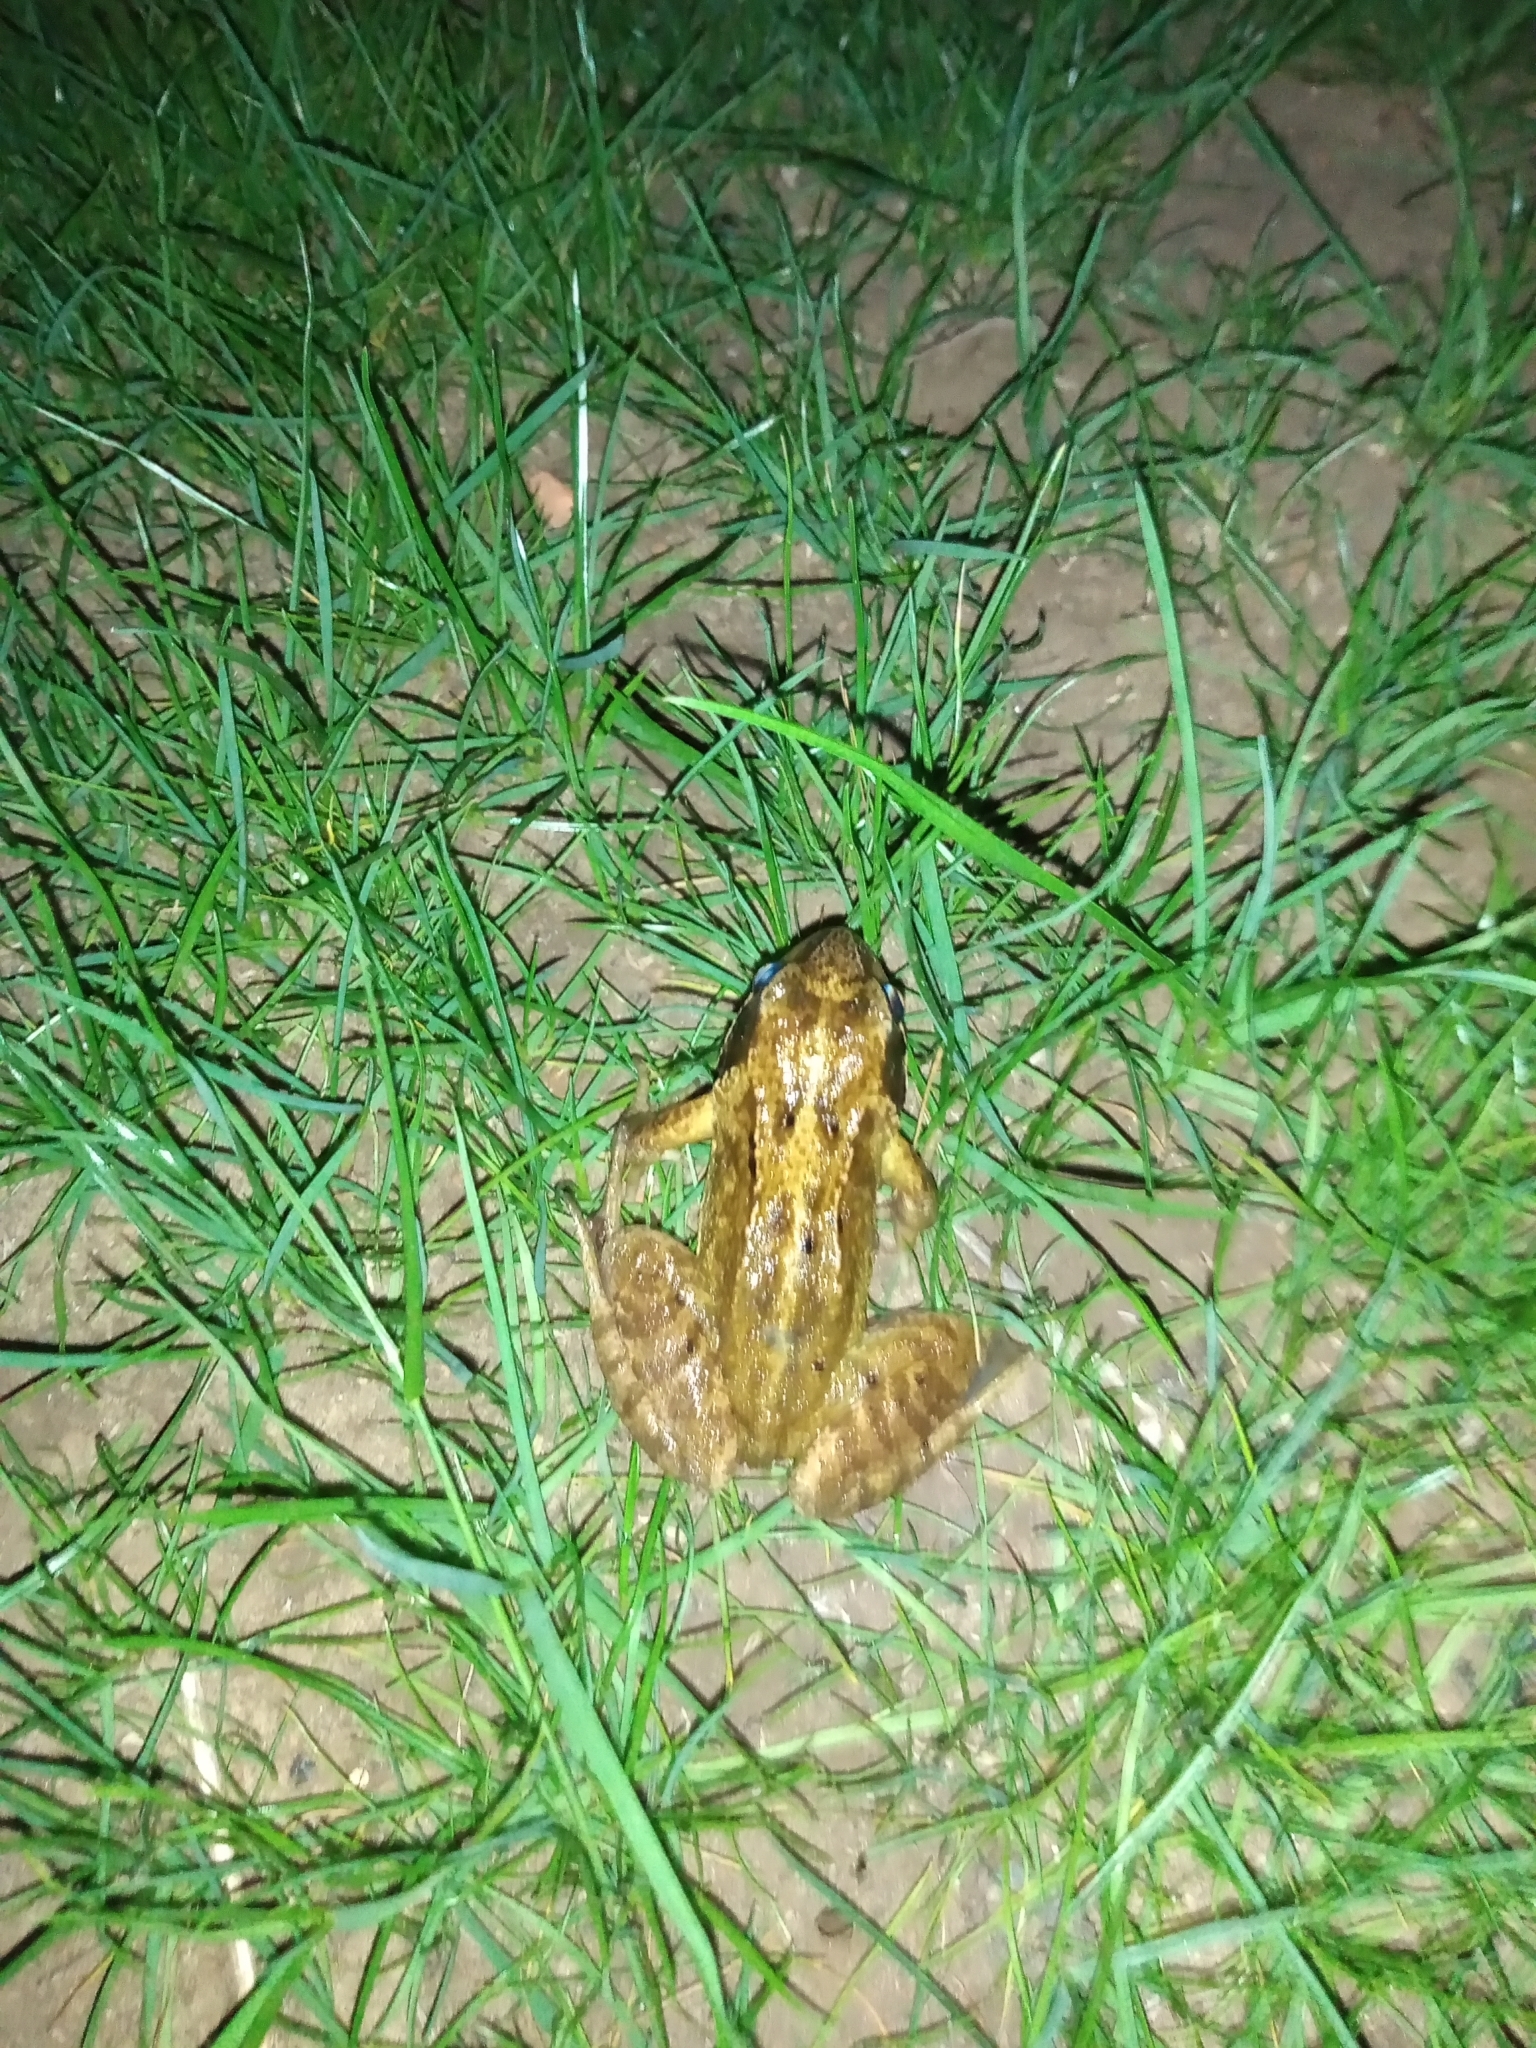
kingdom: Animalia
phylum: Chordata
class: Amphibia
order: Anura
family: Ranidae
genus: Rana
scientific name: Rana temporaria
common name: Common frog
